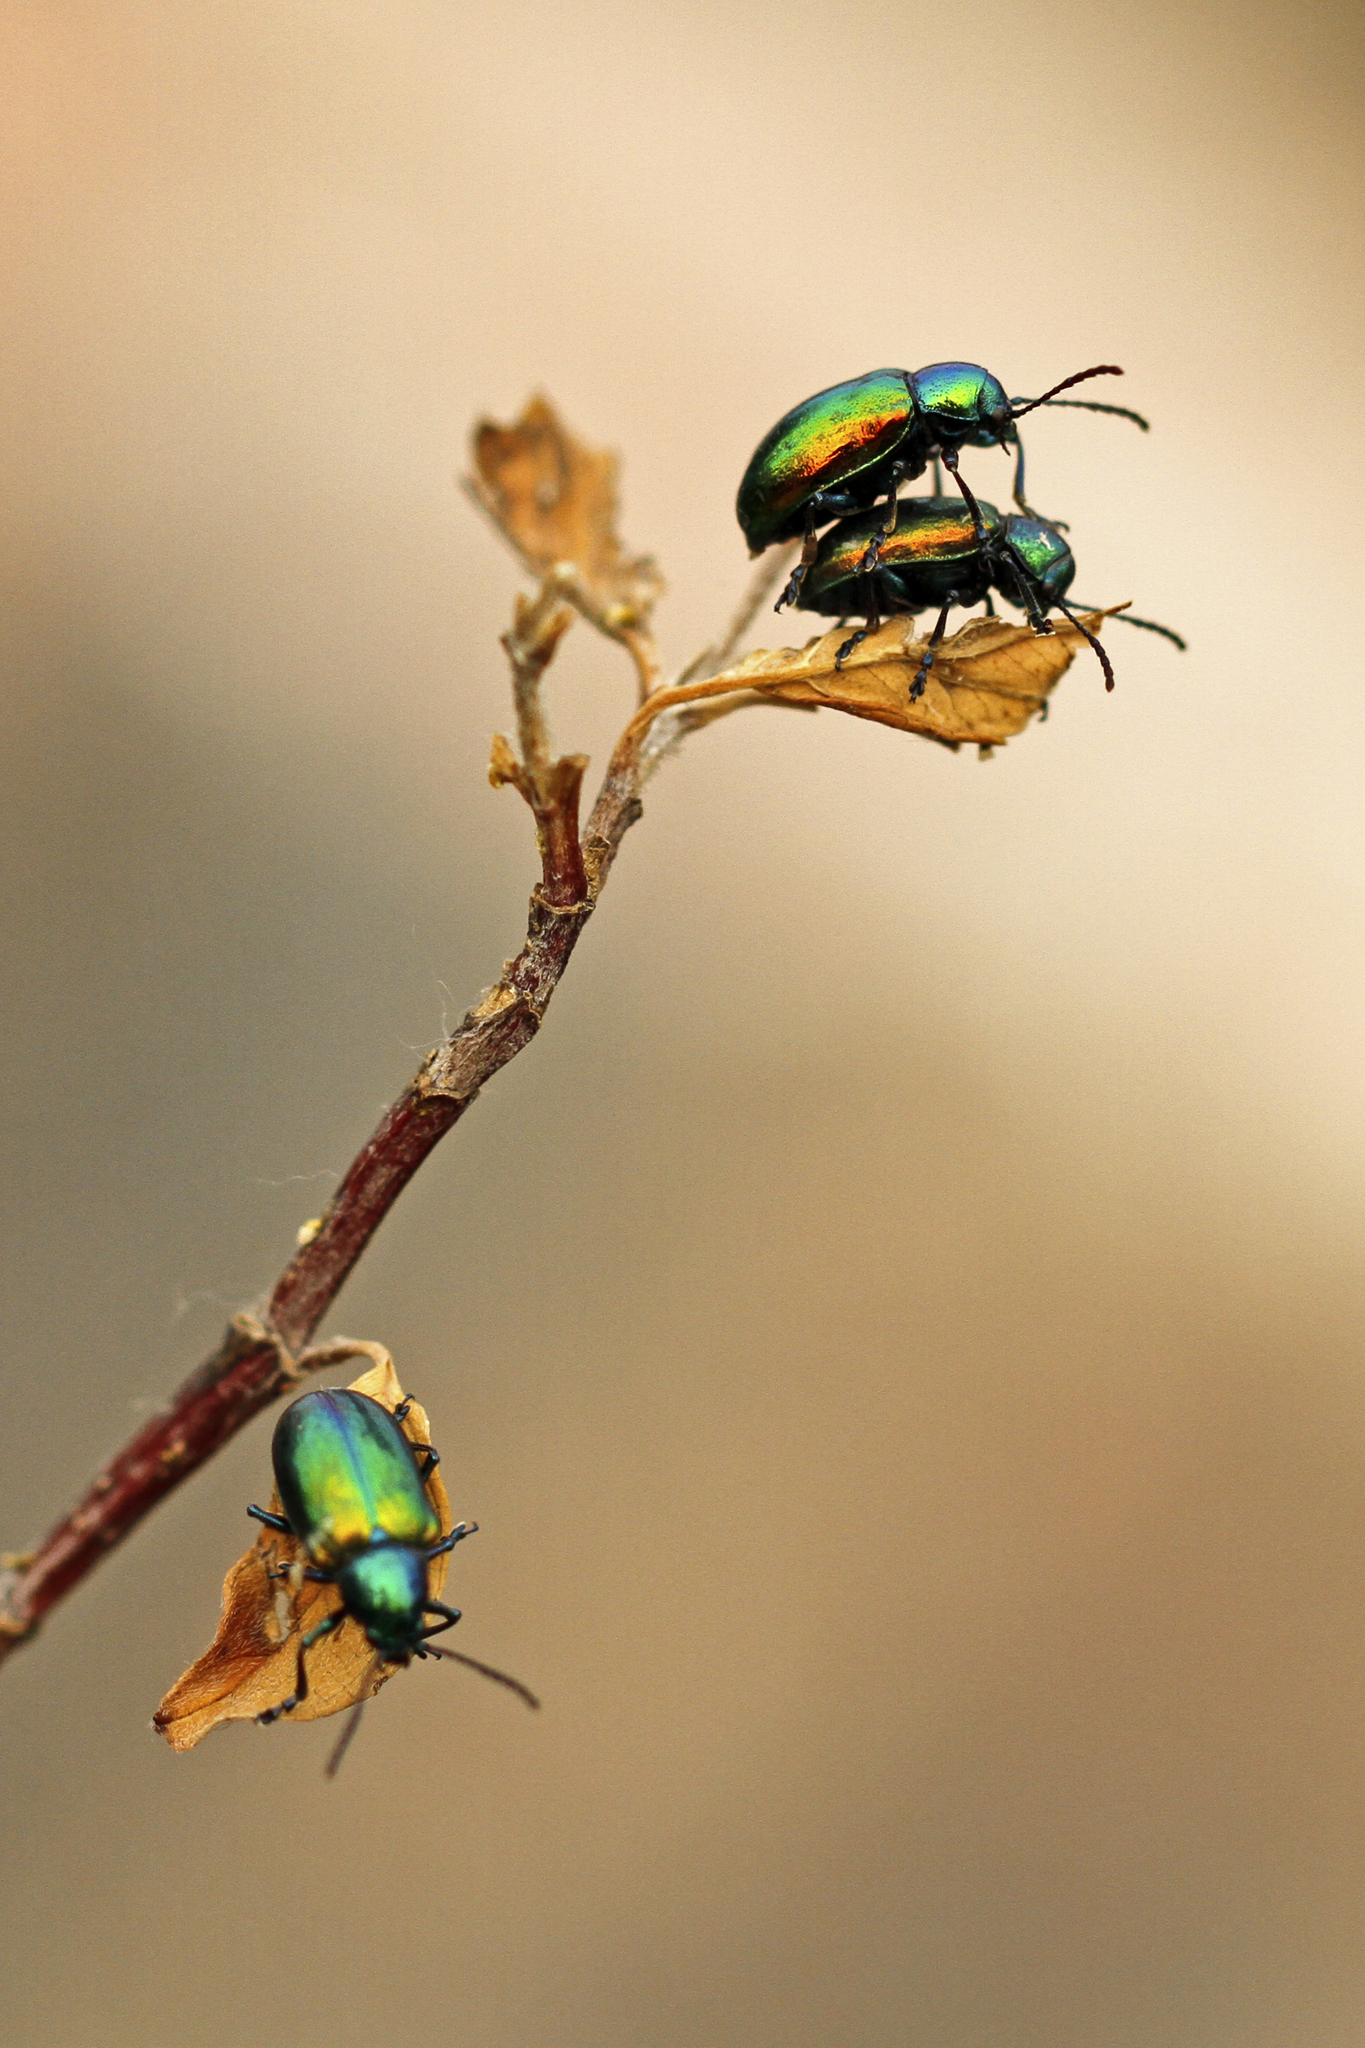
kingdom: Animalia
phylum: Arthropoda
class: Insecta
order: Coleoptera
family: Chrysomelidae
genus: Chrysochus
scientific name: Chrysochus auratus
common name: Dogbane leaf beetle
